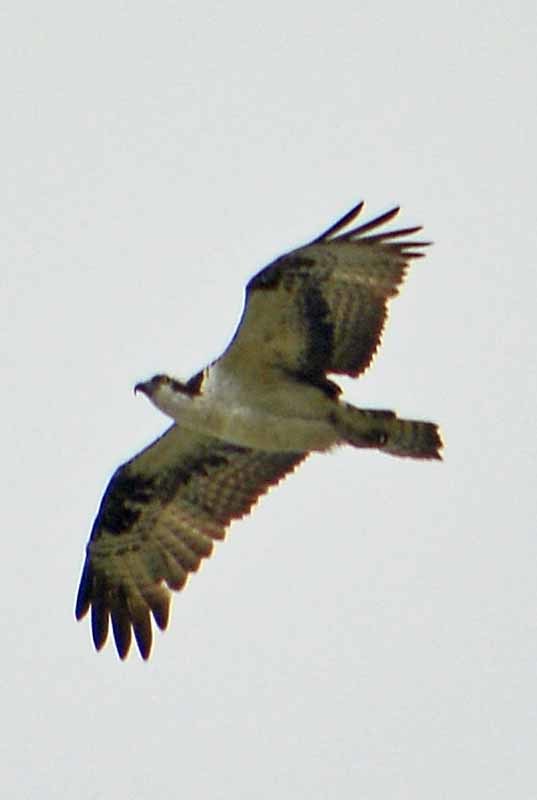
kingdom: Animalia
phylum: Chordata
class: Aves
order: Accipitriformes
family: Pandionidae
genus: Pandion
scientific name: Pandion haliaetus
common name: Osprey
